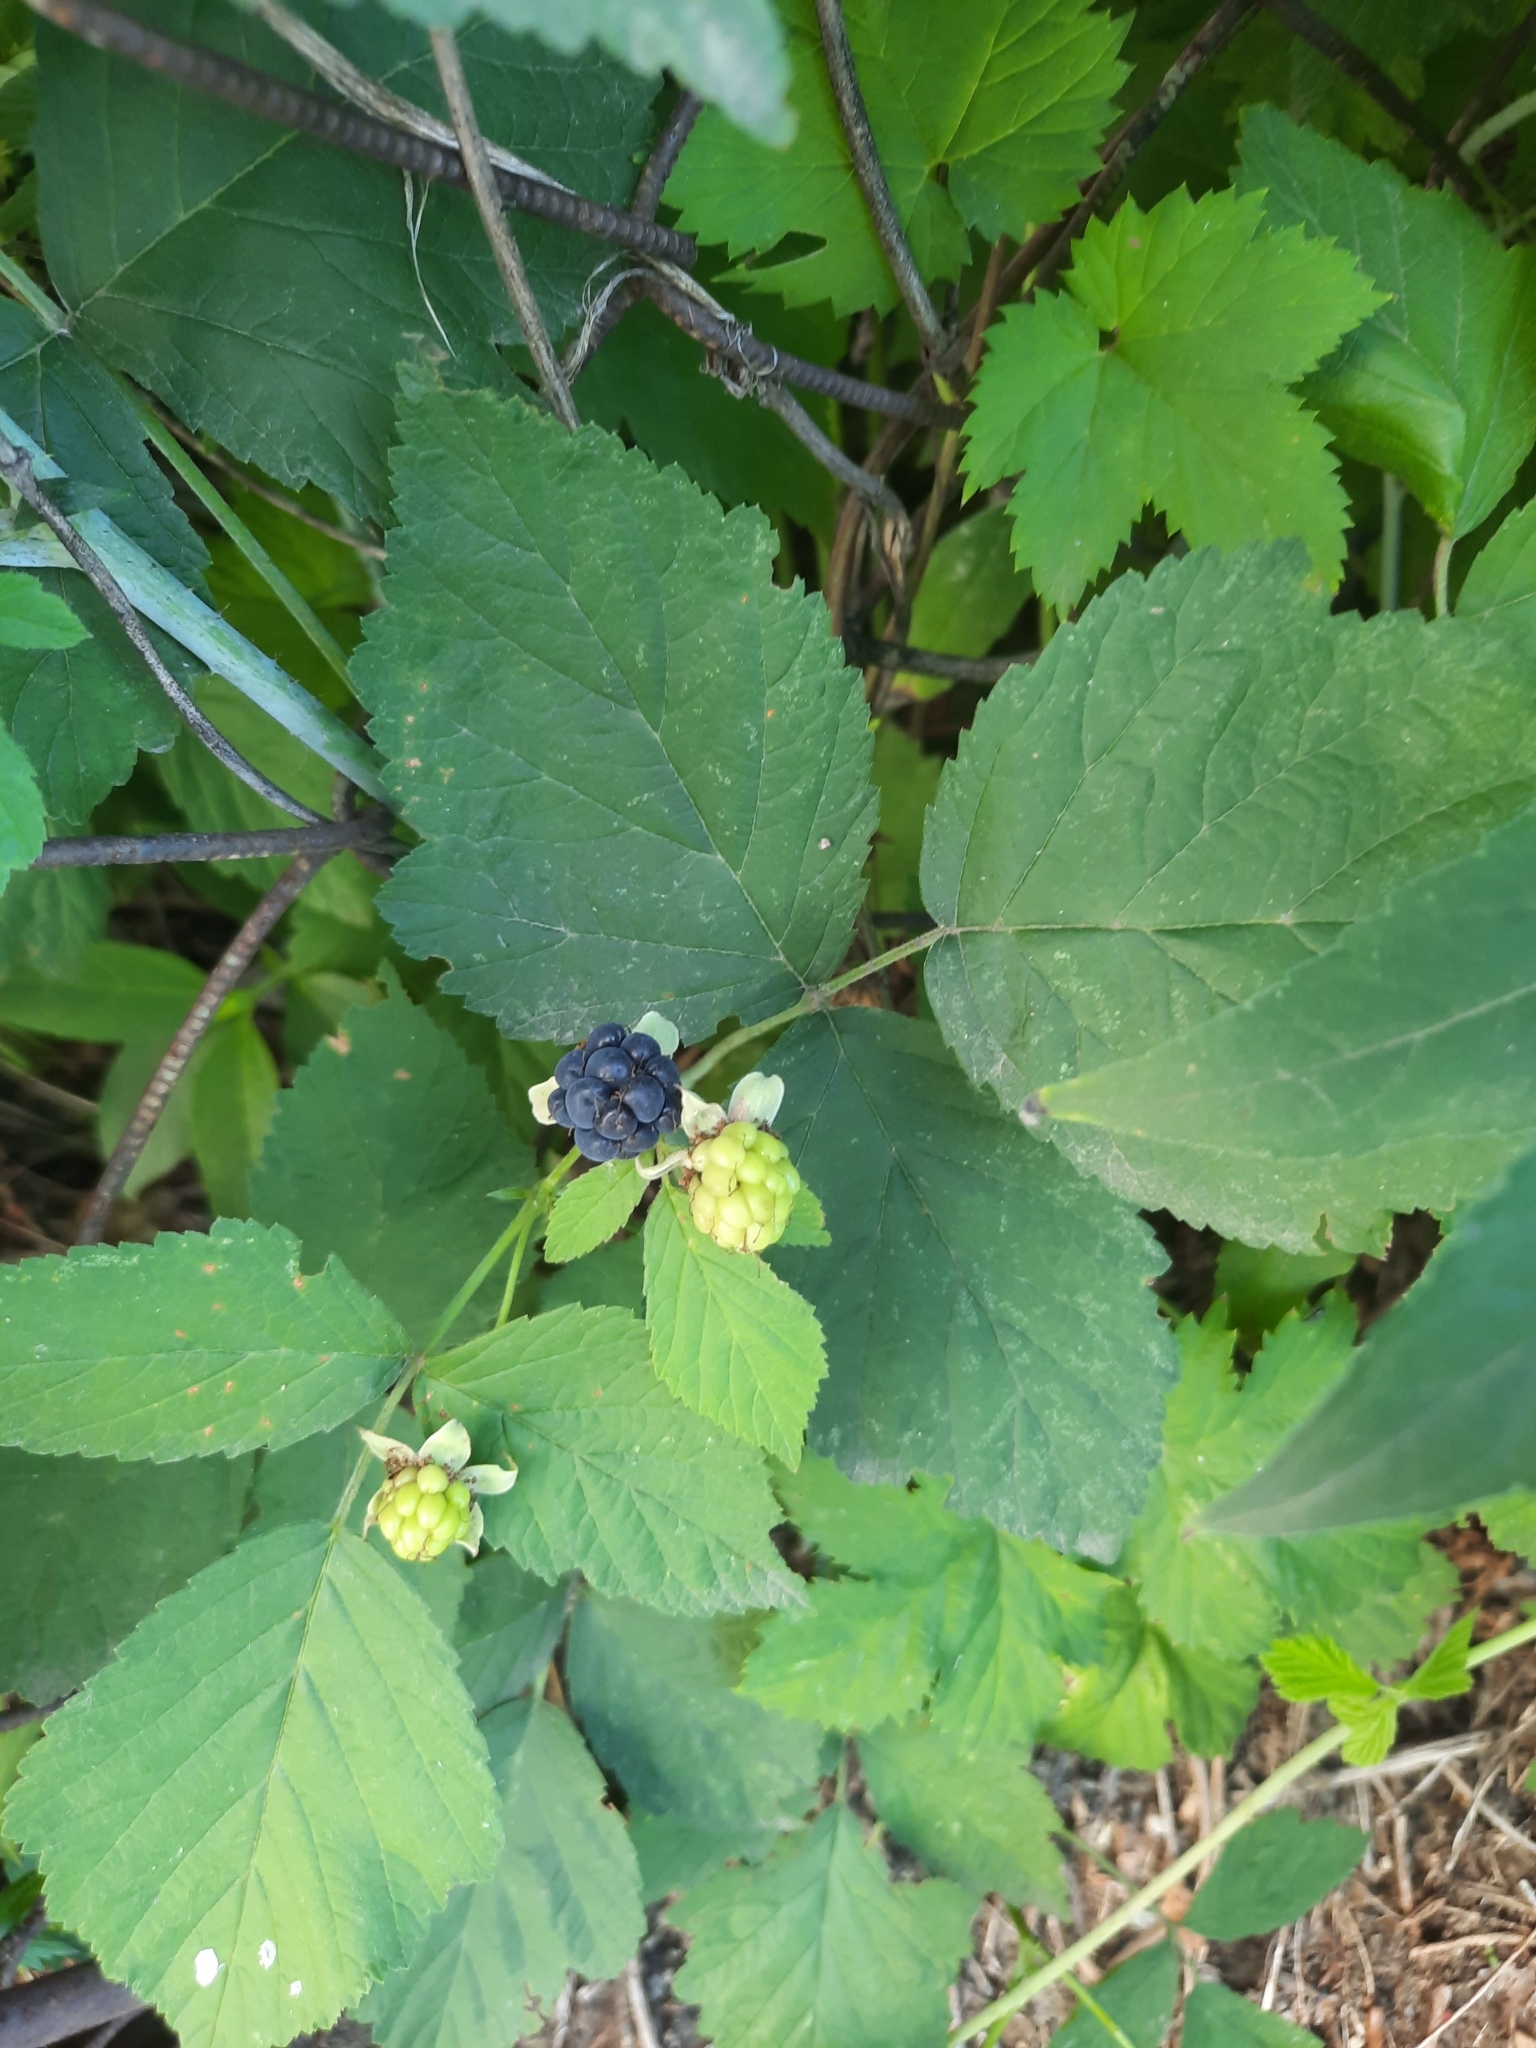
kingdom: Plantae
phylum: Tracheophyta
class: Magnoliopsida
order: Rosales
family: Rosaceae
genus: Rubus
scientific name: Rubus caesius
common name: Dewberry
